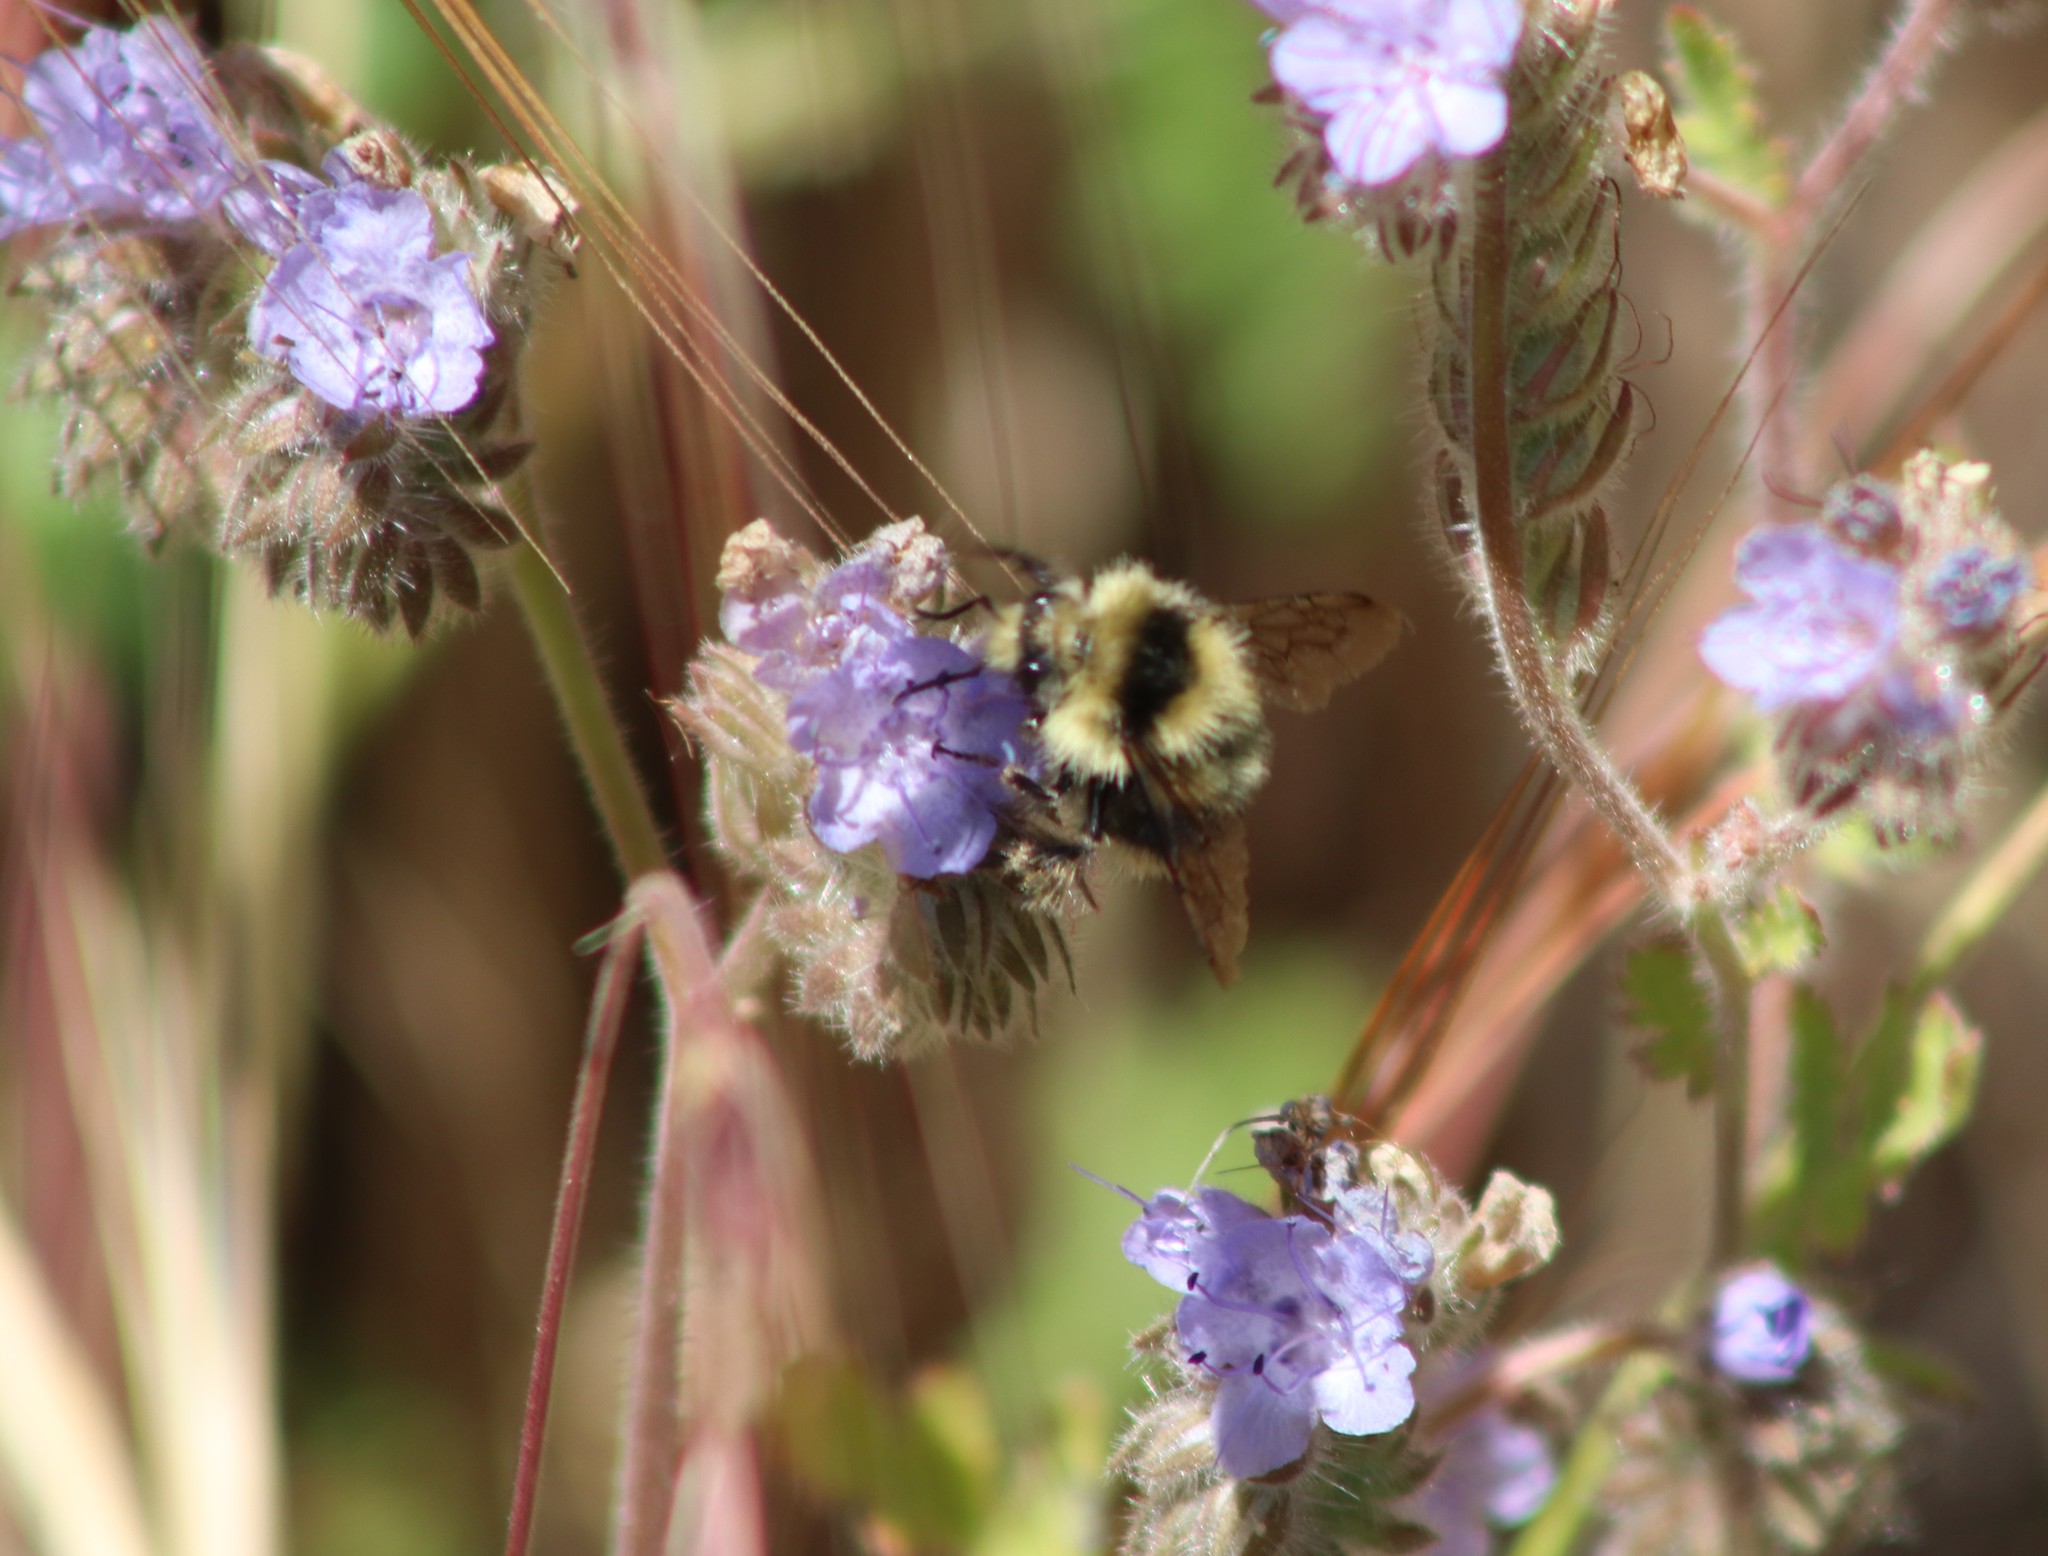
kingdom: Animalia
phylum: Arthropoda
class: Insecta
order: Hymenoptera
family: Apidae
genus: Bombus
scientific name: Bombus melanopygus
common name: Black tail bumble bee
